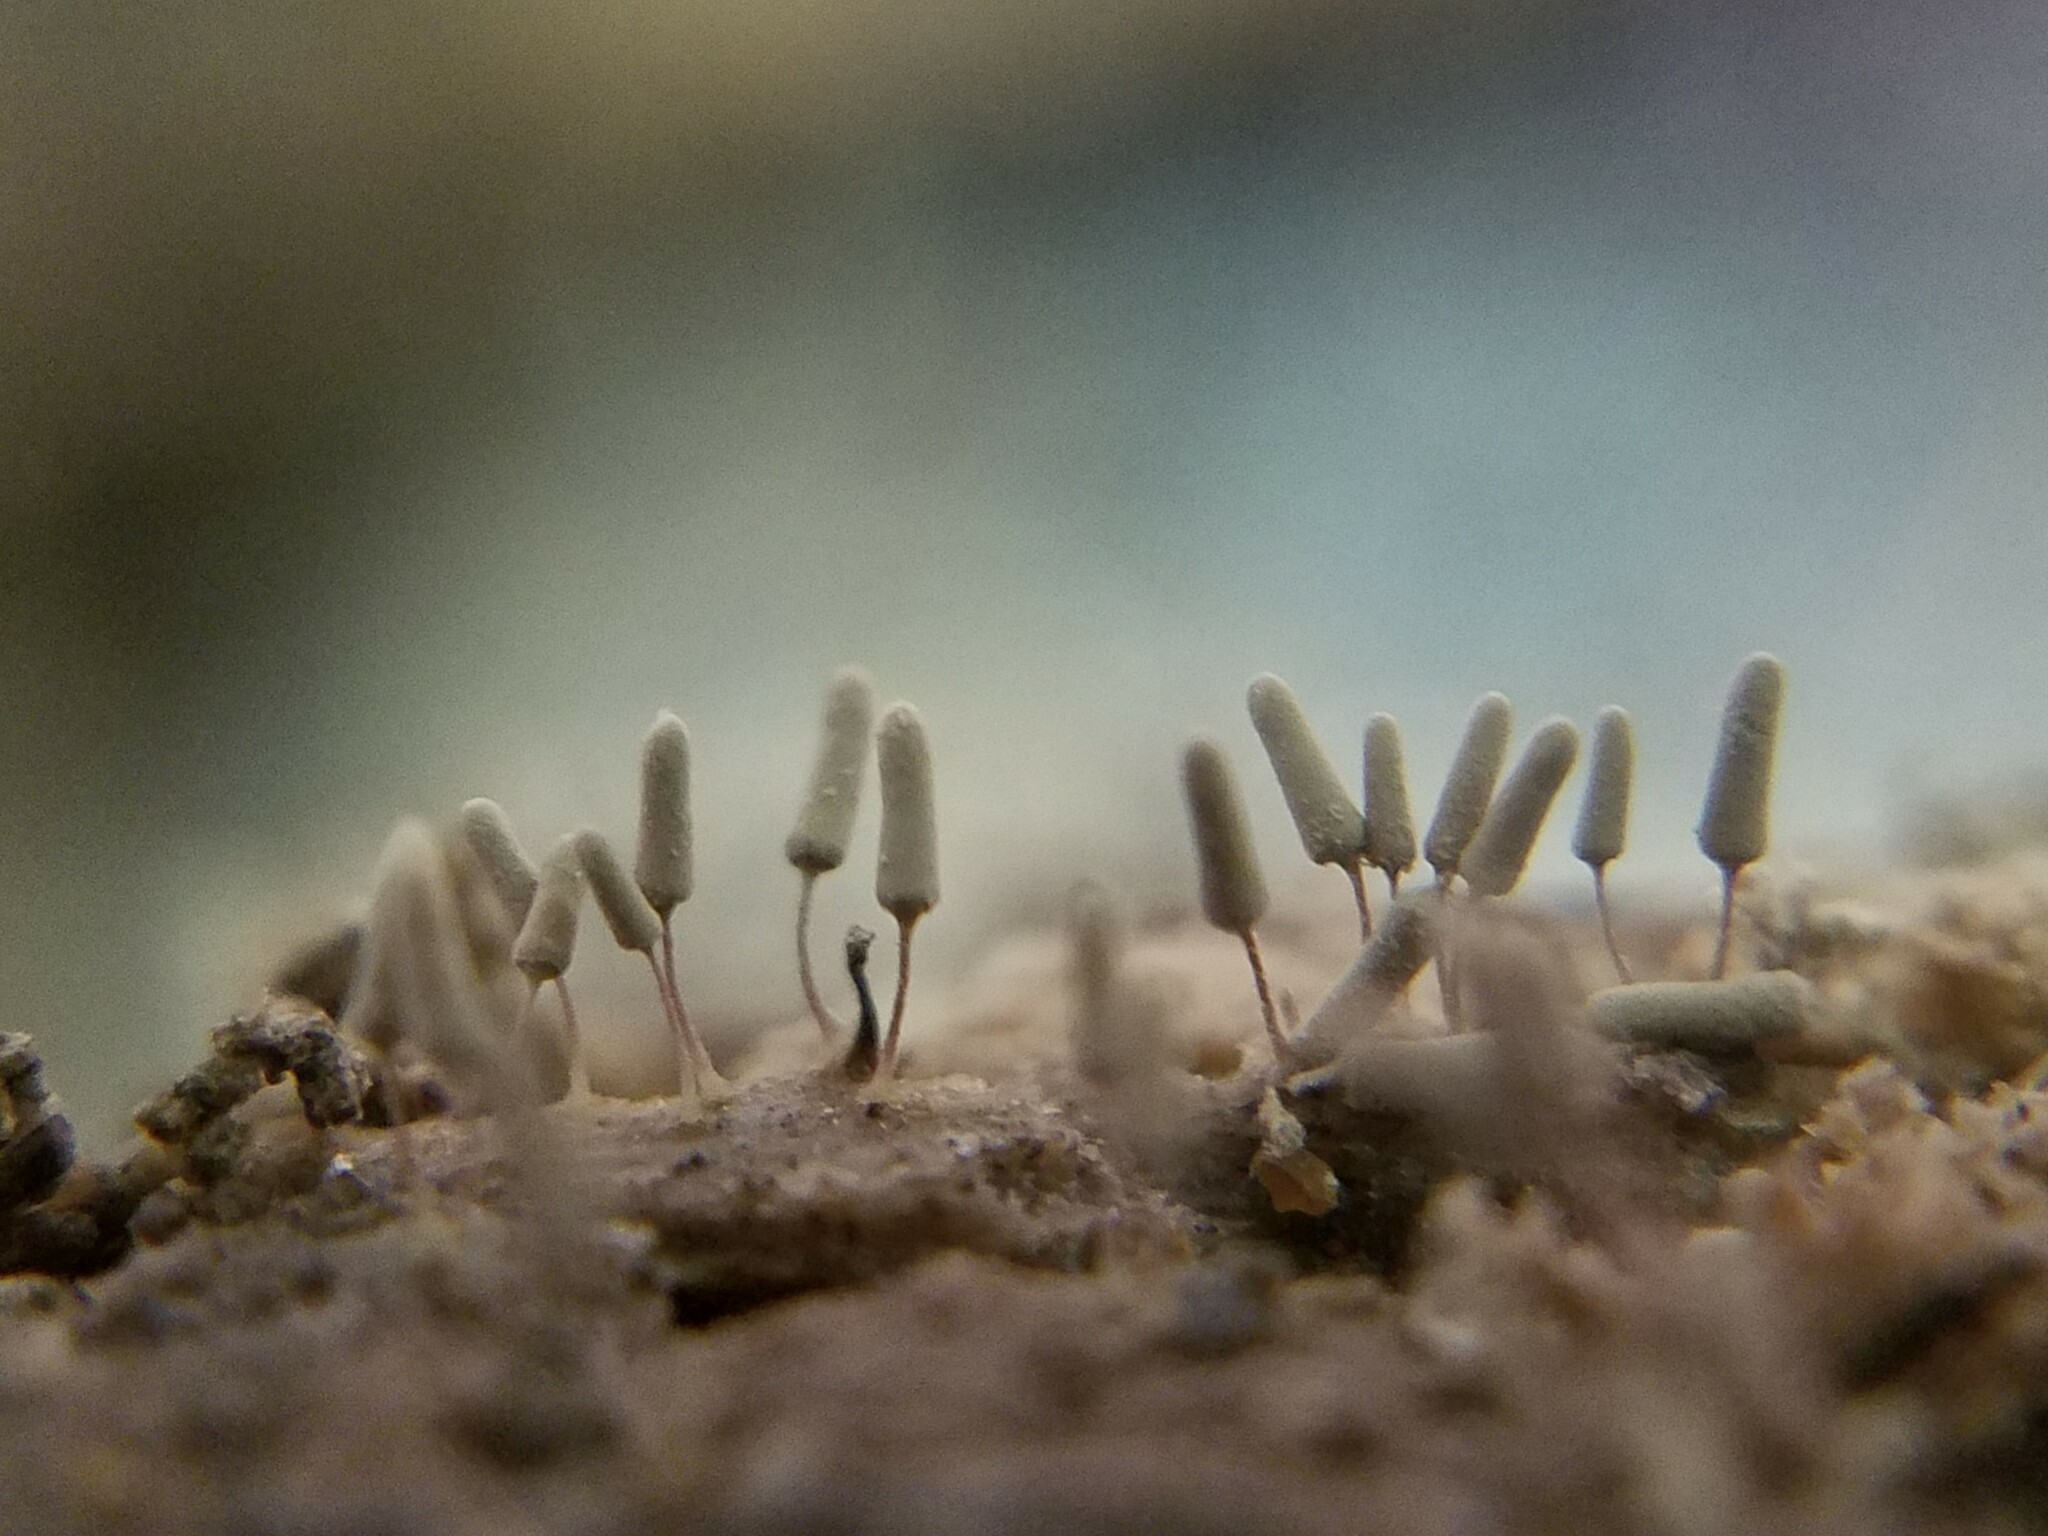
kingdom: Protozoa
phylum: Mycetozoa
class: Myxomycetes
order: Trichiales
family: Arcyriaceae
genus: Arcyria
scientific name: Arcyria cinerea
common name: White carnival candy slime mold
